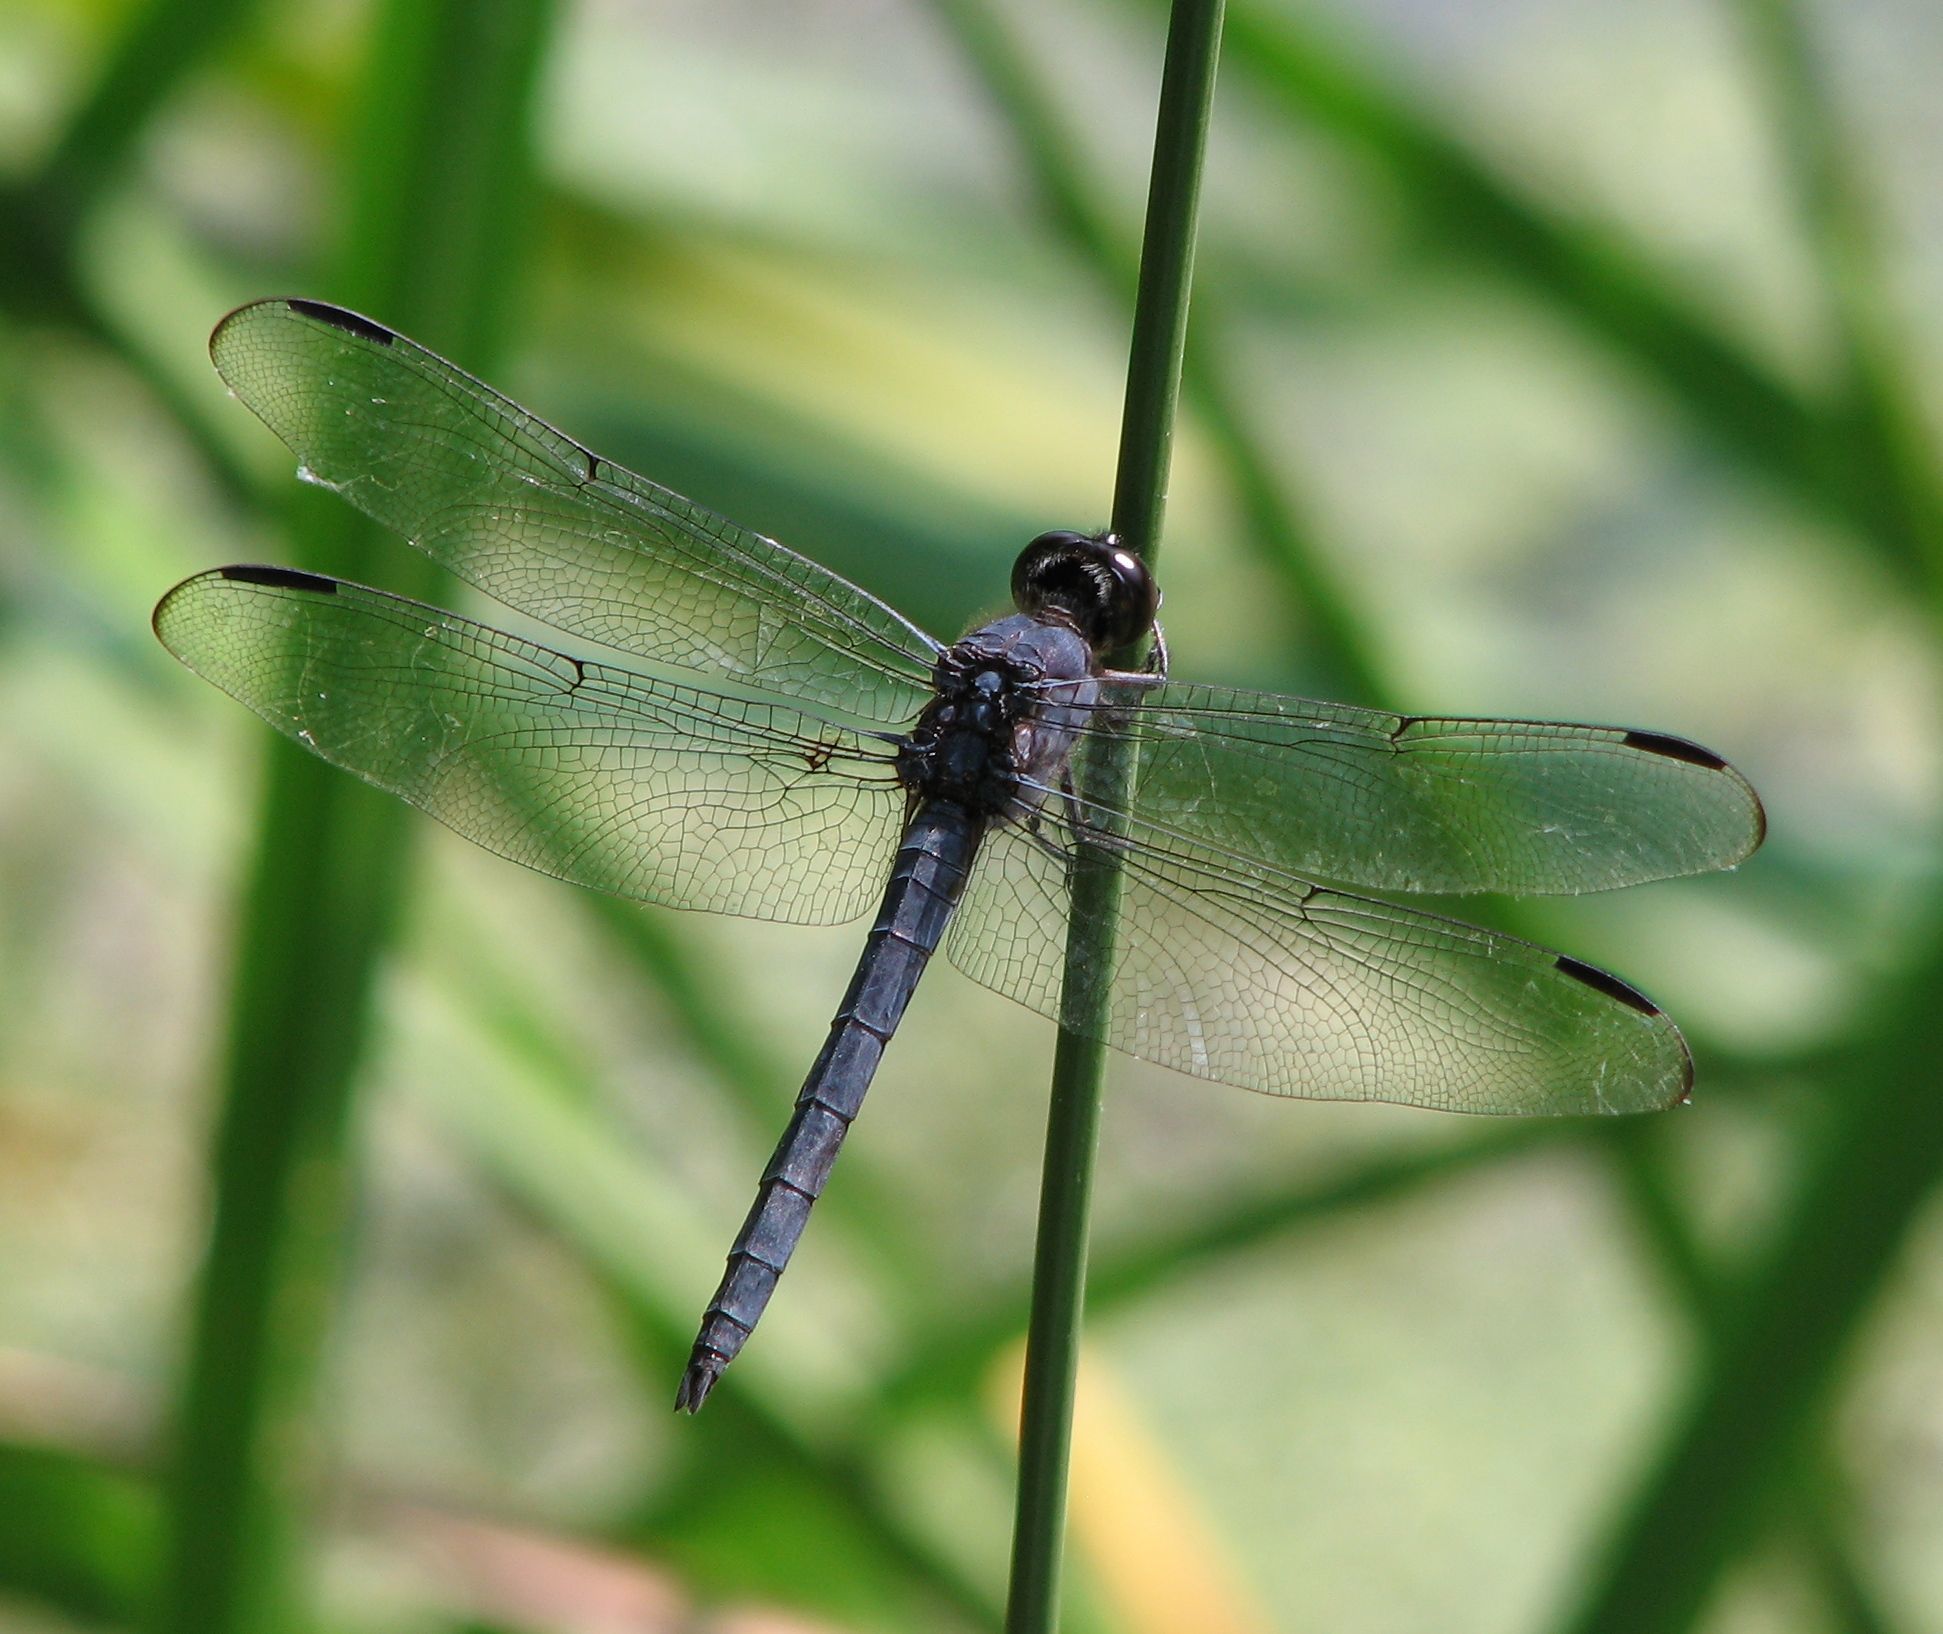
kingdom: Animalia
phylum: Arthropoda
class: Insecta
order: Odonata
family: Libellulidae
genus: Libellula
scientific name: Libellula incesta
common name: Slaty skimmer
